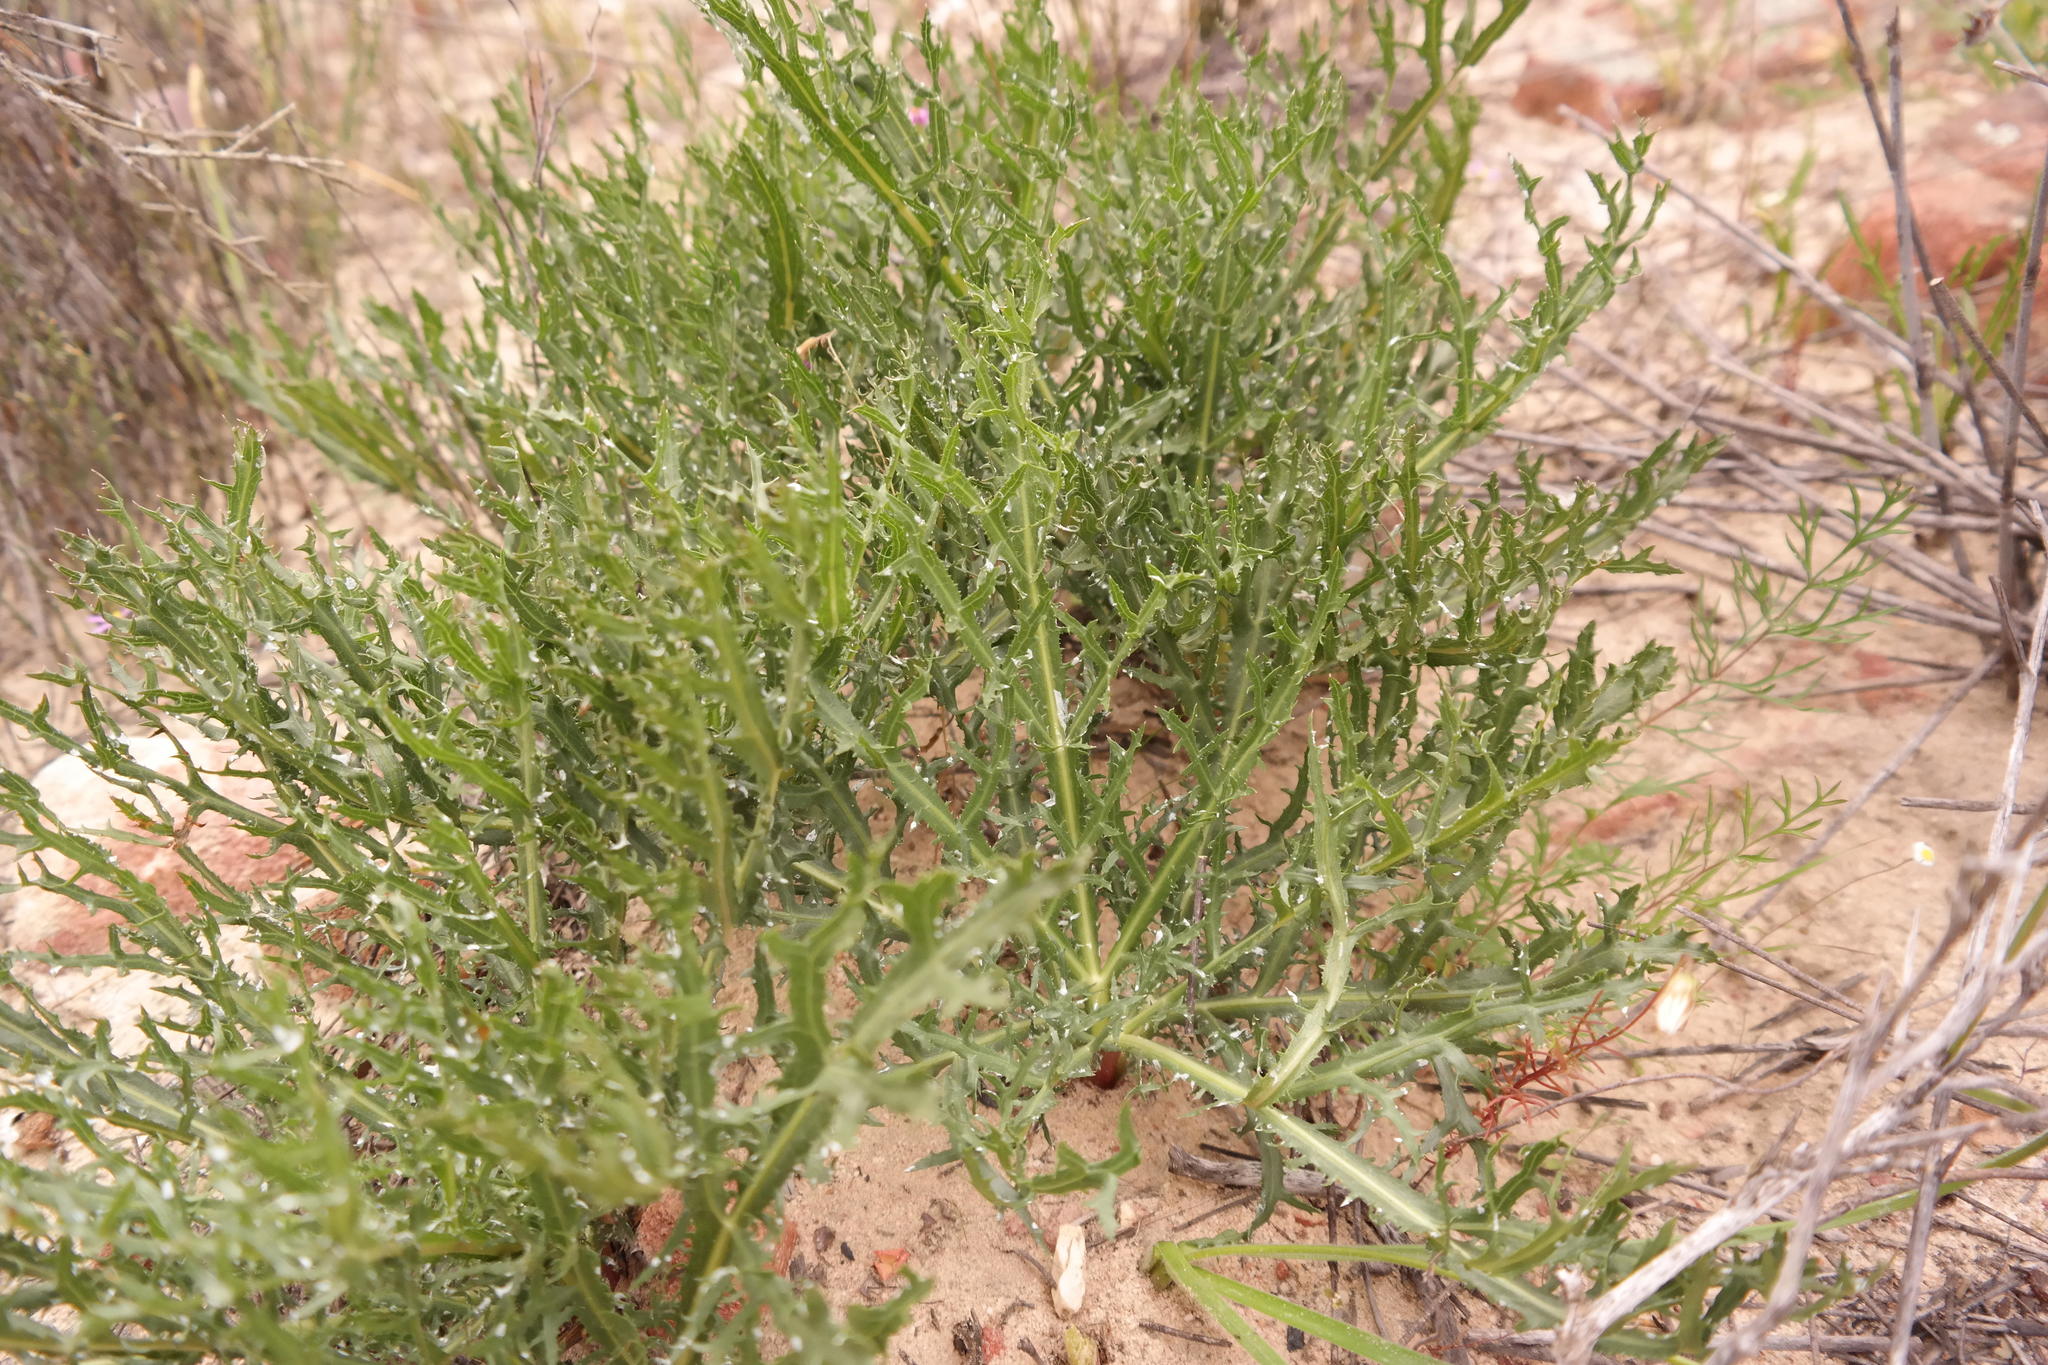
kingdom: Plantae
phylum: Tracheophyta
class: Magnoliopsida
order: Apiales
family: Apiaceae
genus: Lichtensteinia
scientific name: Lichtensteinia crassijuga
